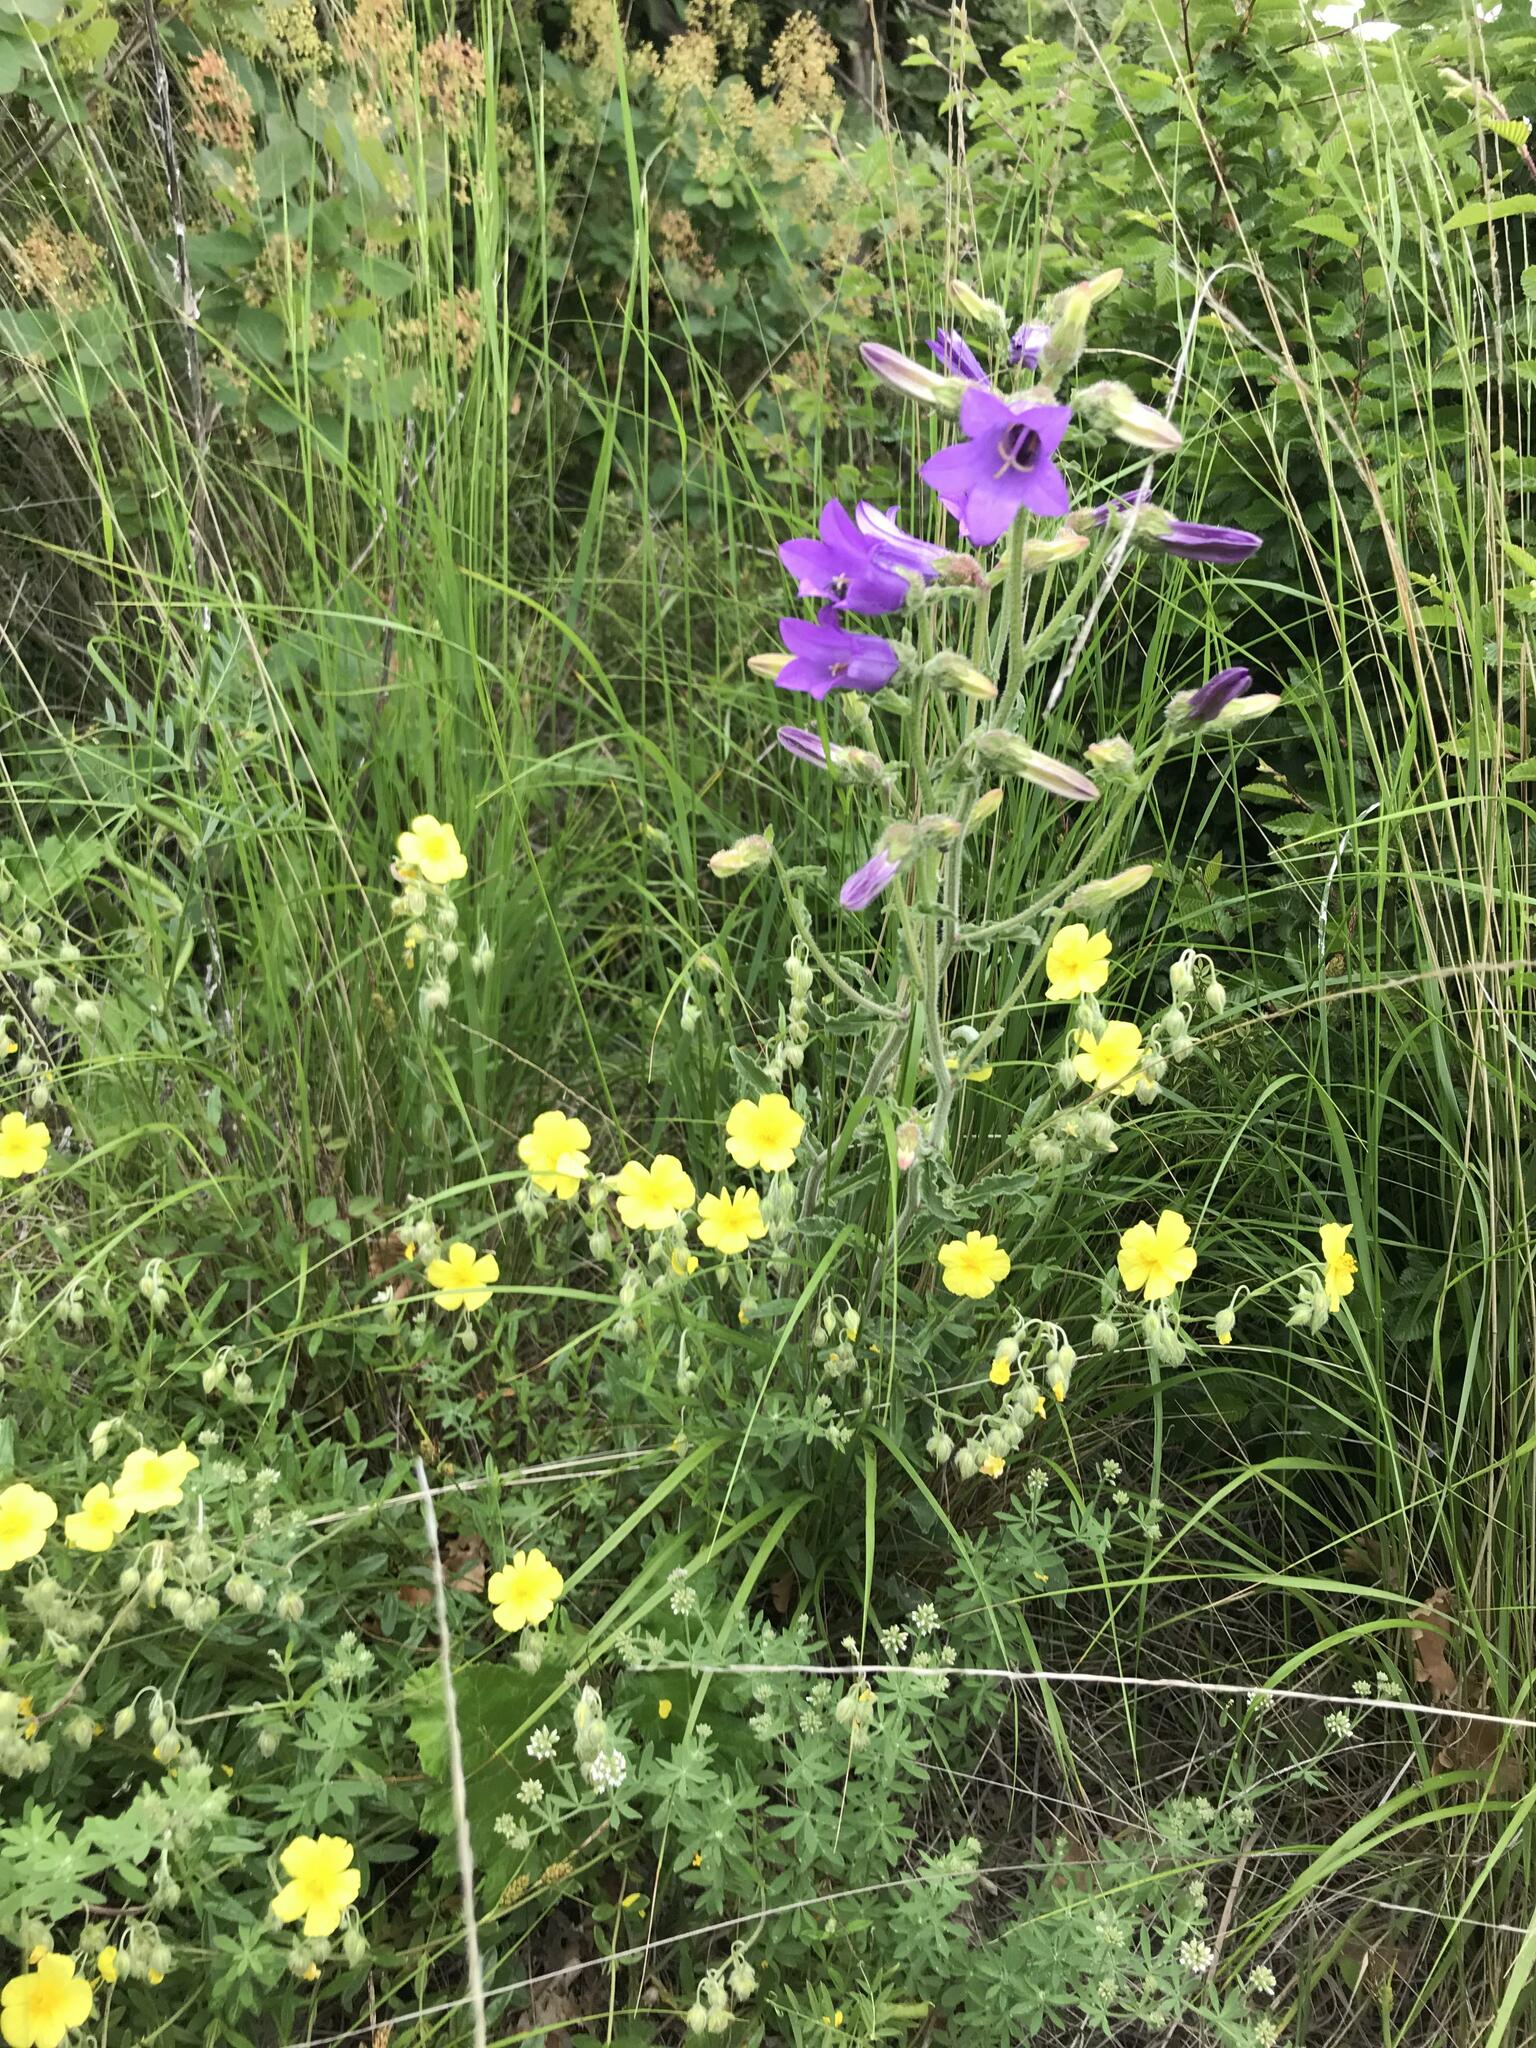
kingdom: Plantae
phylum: Tracheophyta
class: Magnoliopsida
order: Asterales
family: Campanulaceae
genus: Campanula
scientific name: Campanula komarovii
